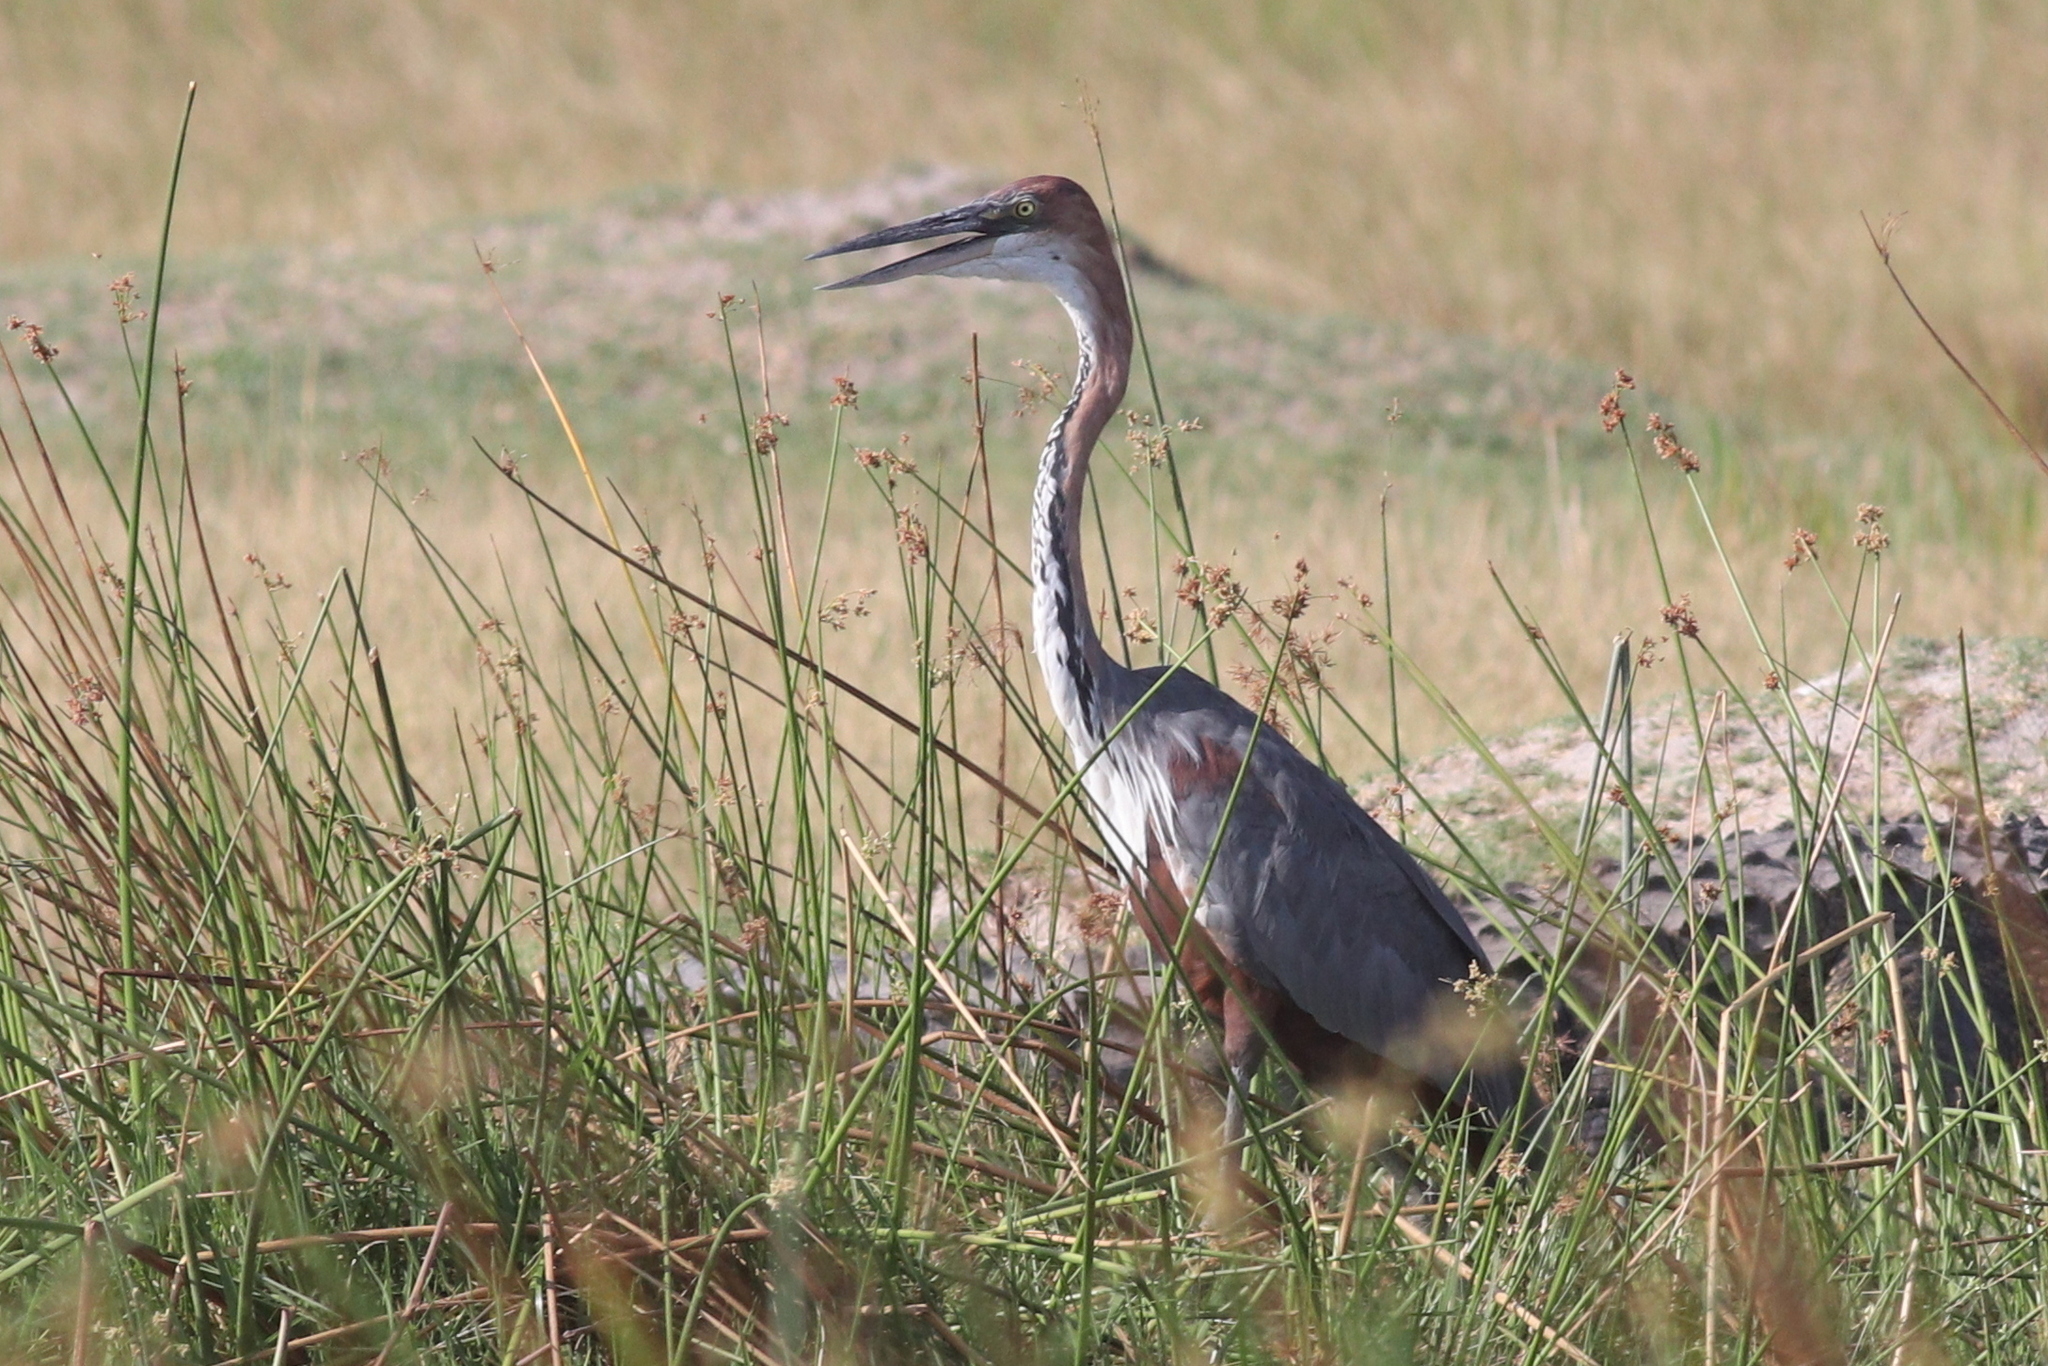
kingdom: Animalia
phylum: Chordata
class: Aves
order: Pelecaniformes
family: Ardeidae
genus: Ardea
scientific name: Ardea goliath
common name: Goliath heron
